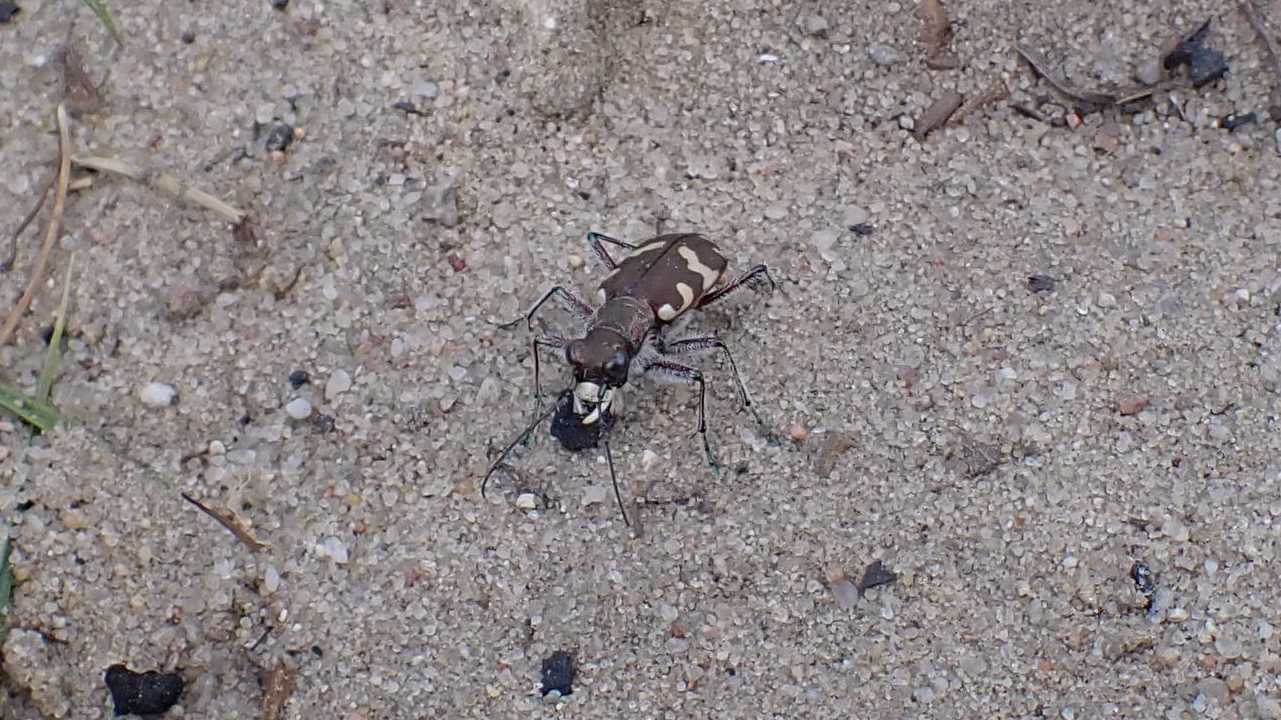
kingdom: Animalia
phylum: Arthropoda
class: Insecta
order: Coleoptera
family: Carabidae
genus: Cicindela
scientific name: Cicindela hybrida
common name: Northern dune tiger beetle
